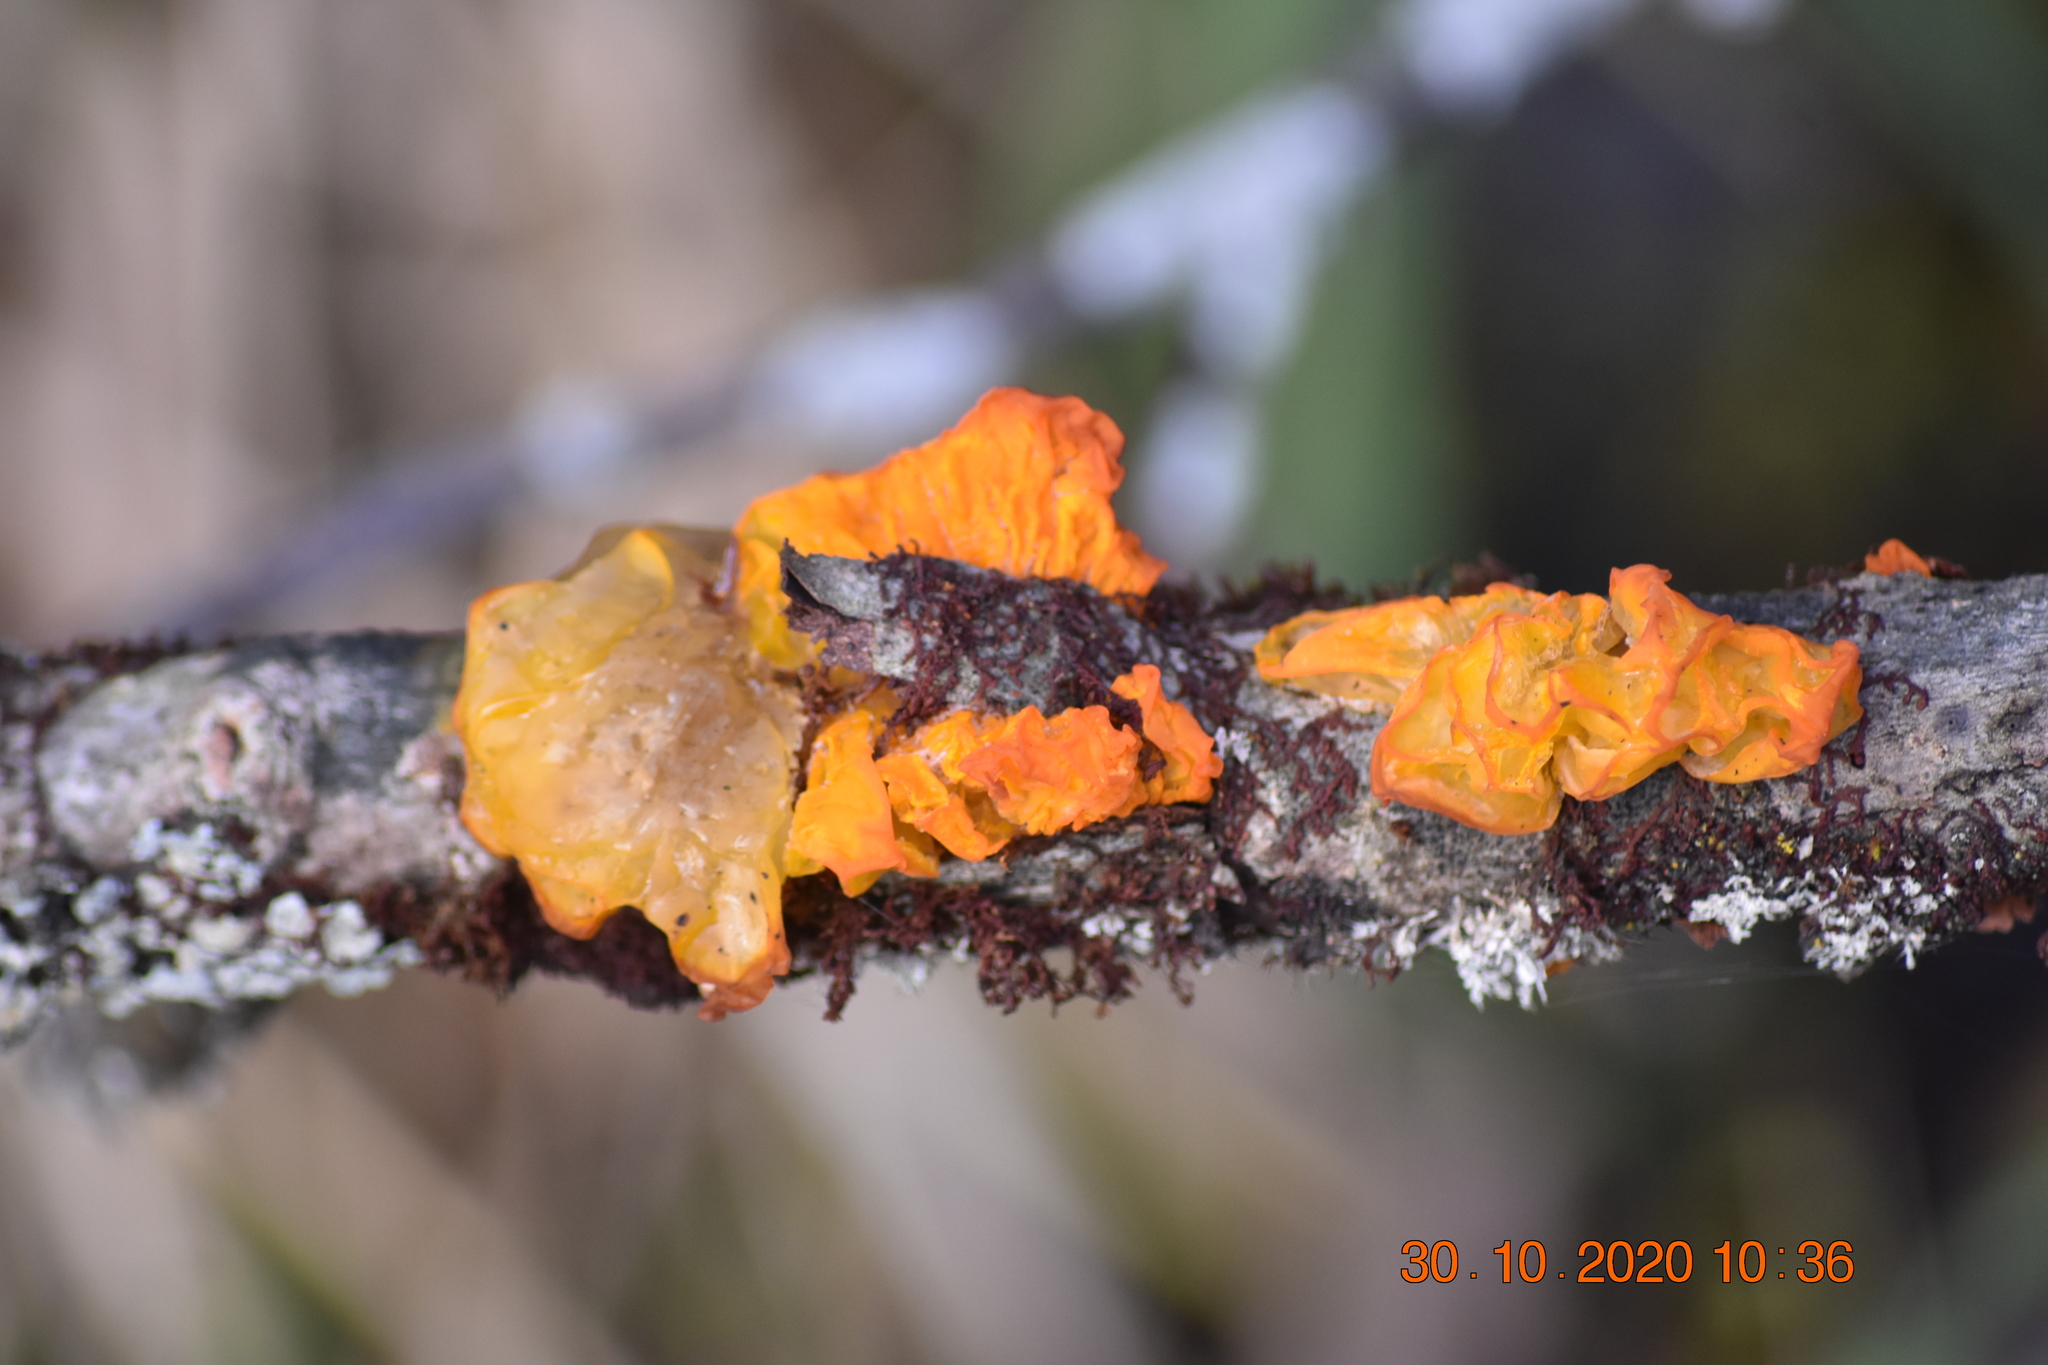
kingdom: Fungi
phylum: Basidiomycota
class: Tremellomycetes
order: Tremellales
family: Tremellaceae
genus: Tremella
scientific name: Tremella mesenterica
